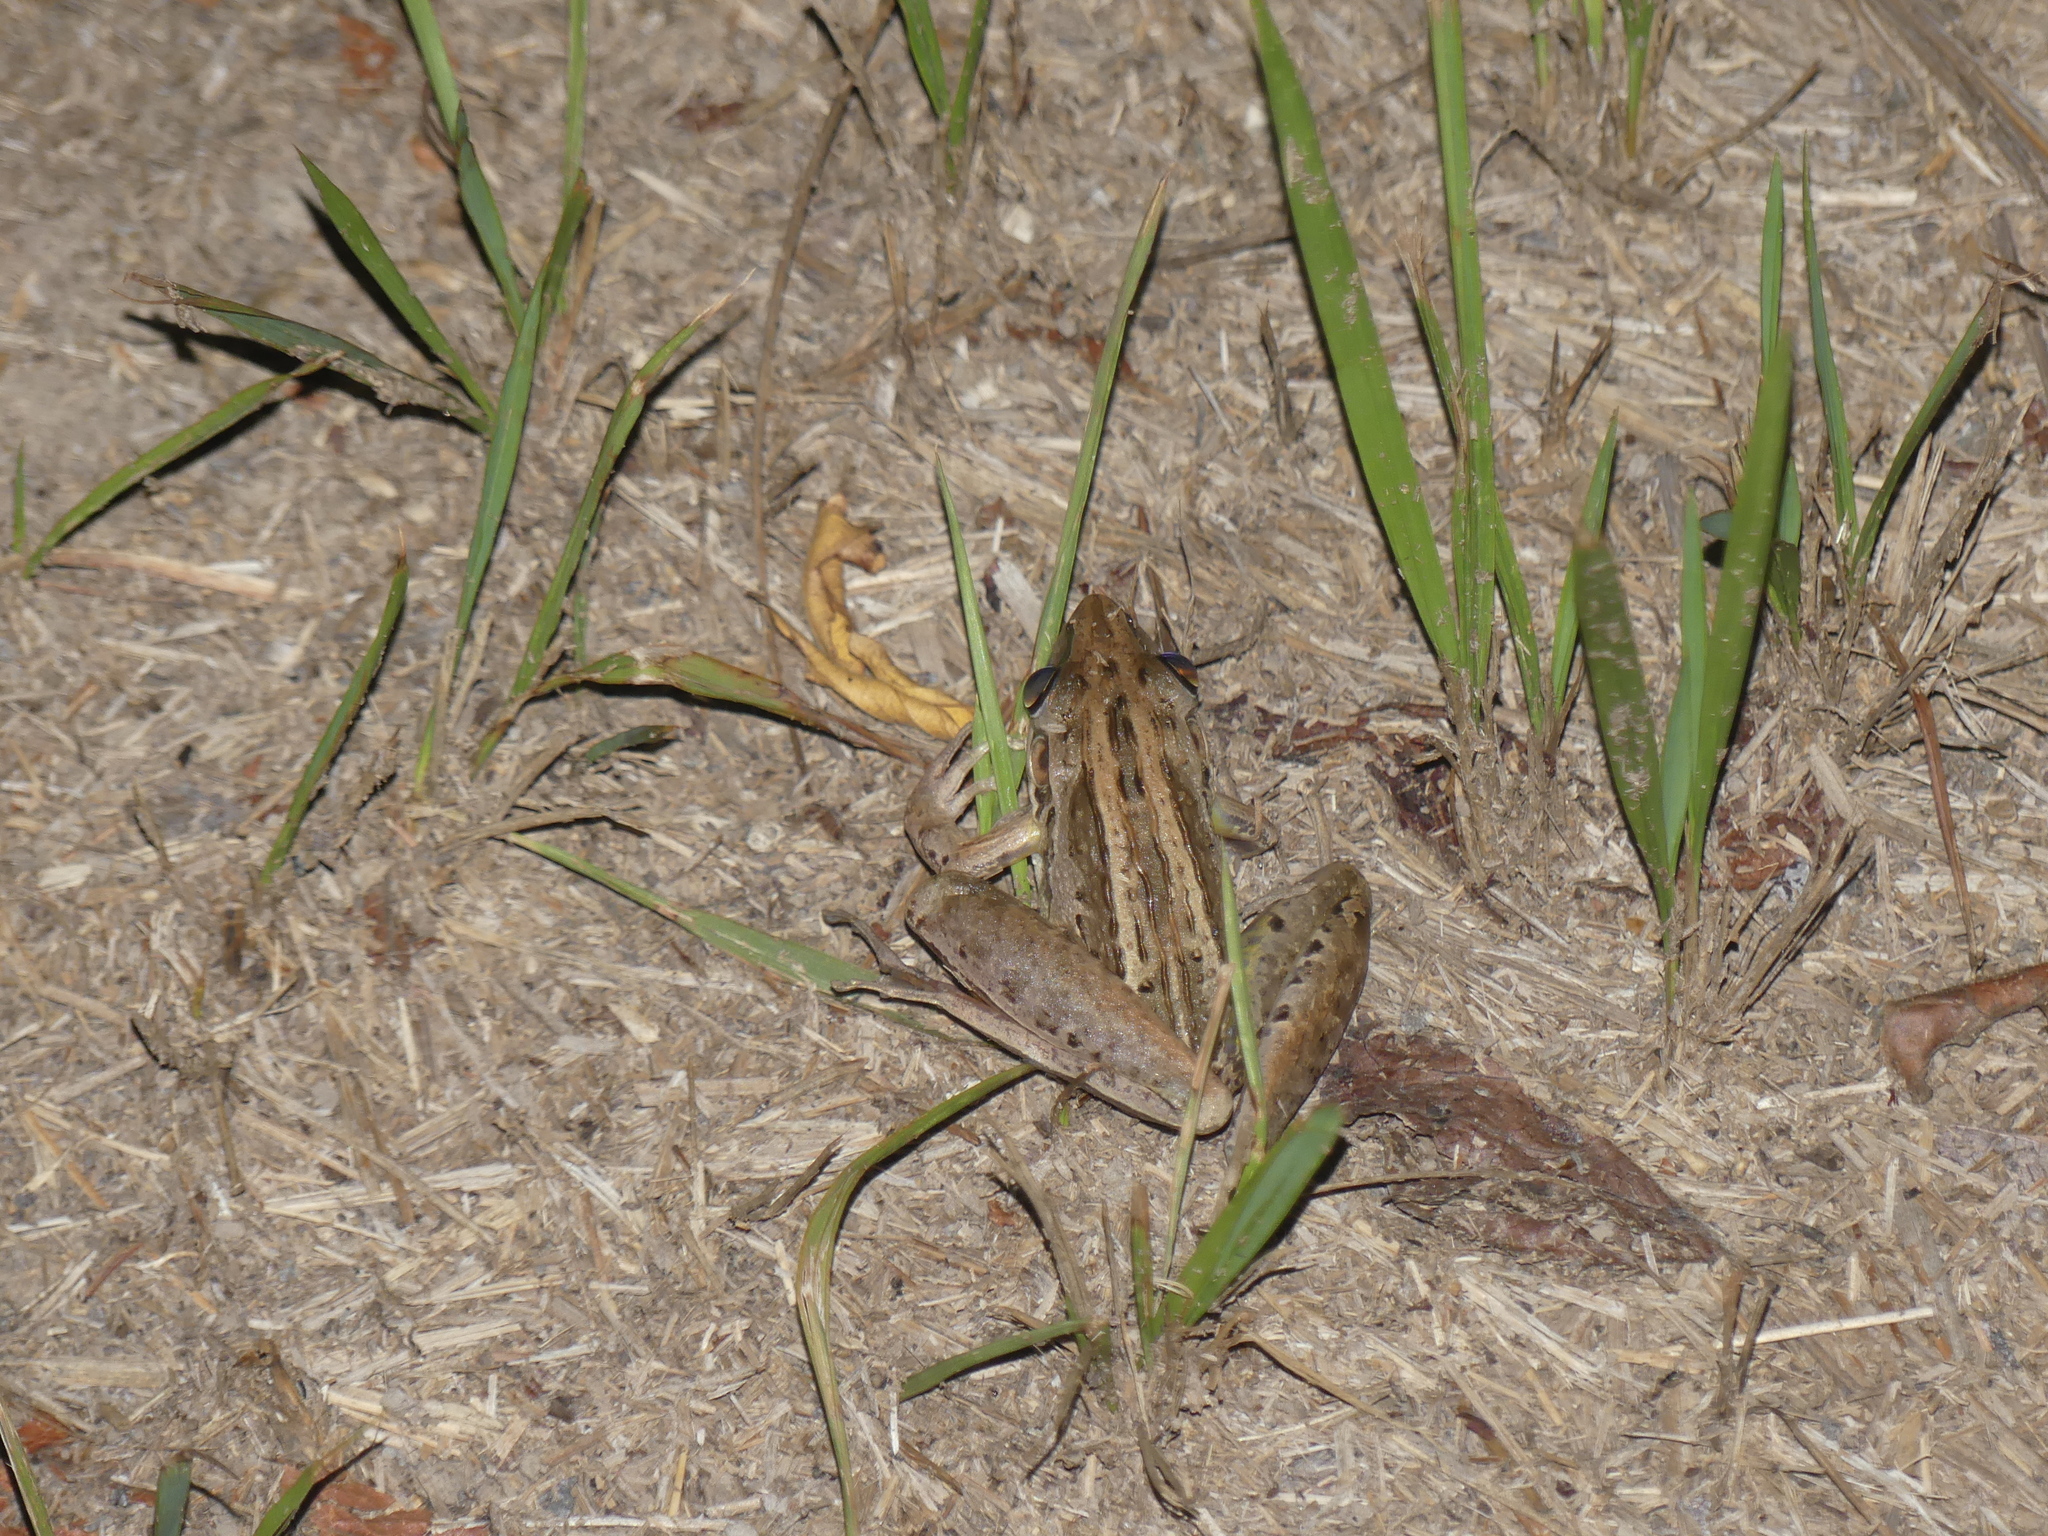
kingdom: Animalia
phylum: Chordata
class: Amphibia
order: Anura
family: Pelodryadidae
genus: Litoria
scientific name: Litoria nasuta
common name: Rocket frog
